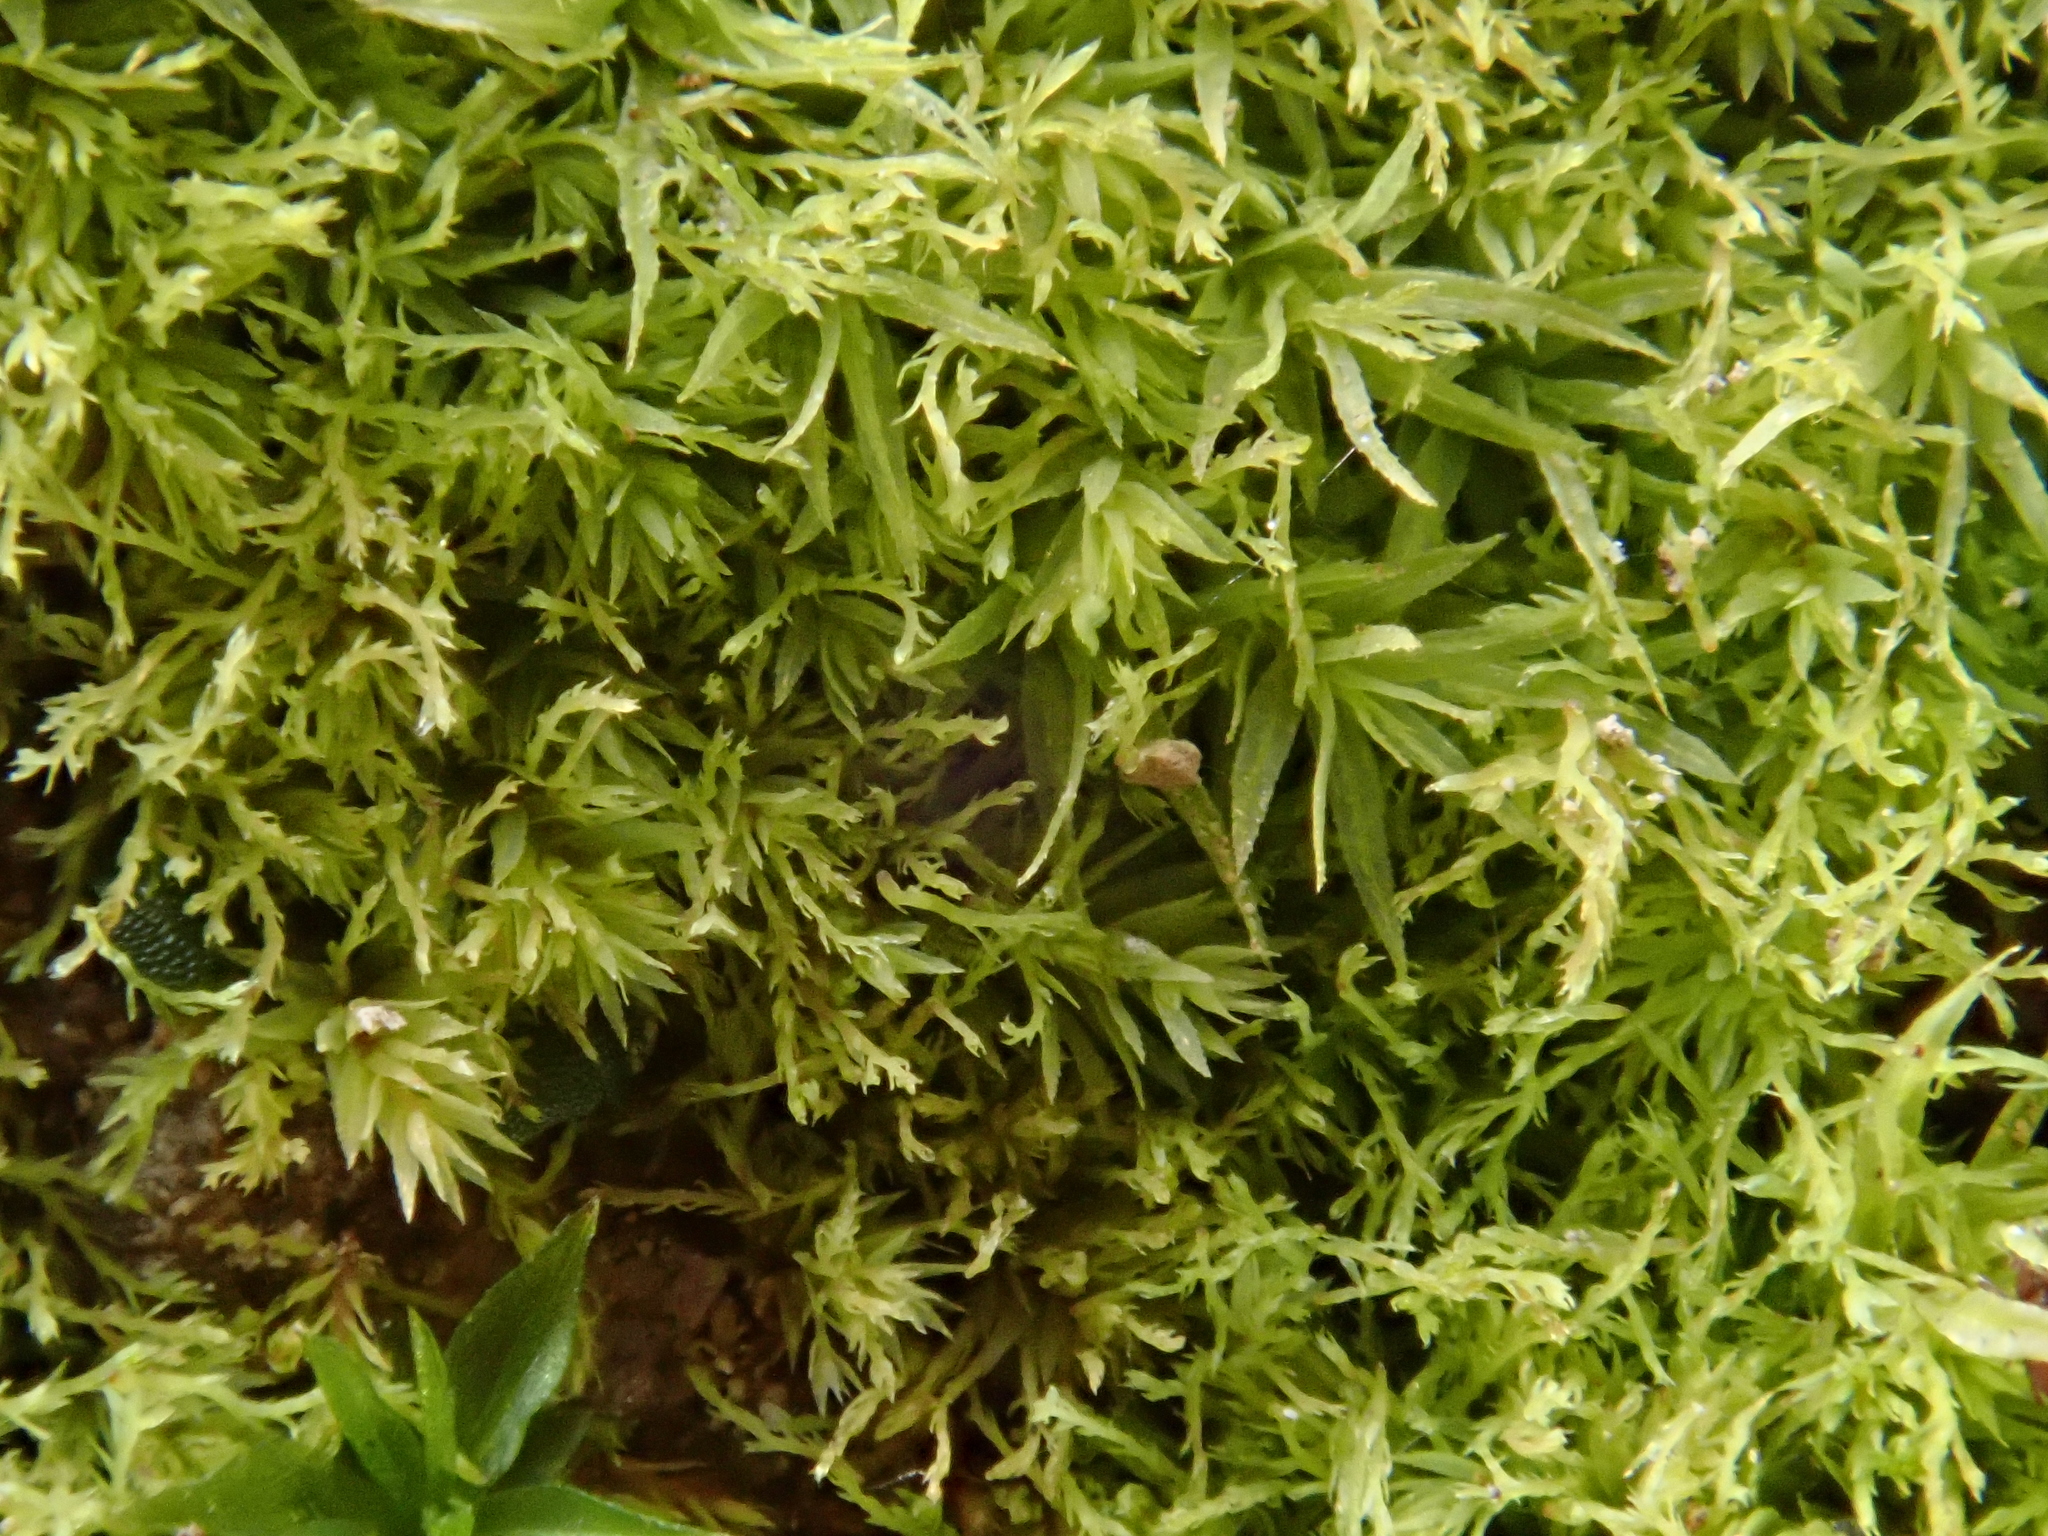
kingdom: Plantae
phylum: Bryophyta
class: Bryopsida
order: Bryales
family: Mniaceae
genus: Pohlia
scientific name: Pohlia lutescens
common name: Yellow thread-moss
